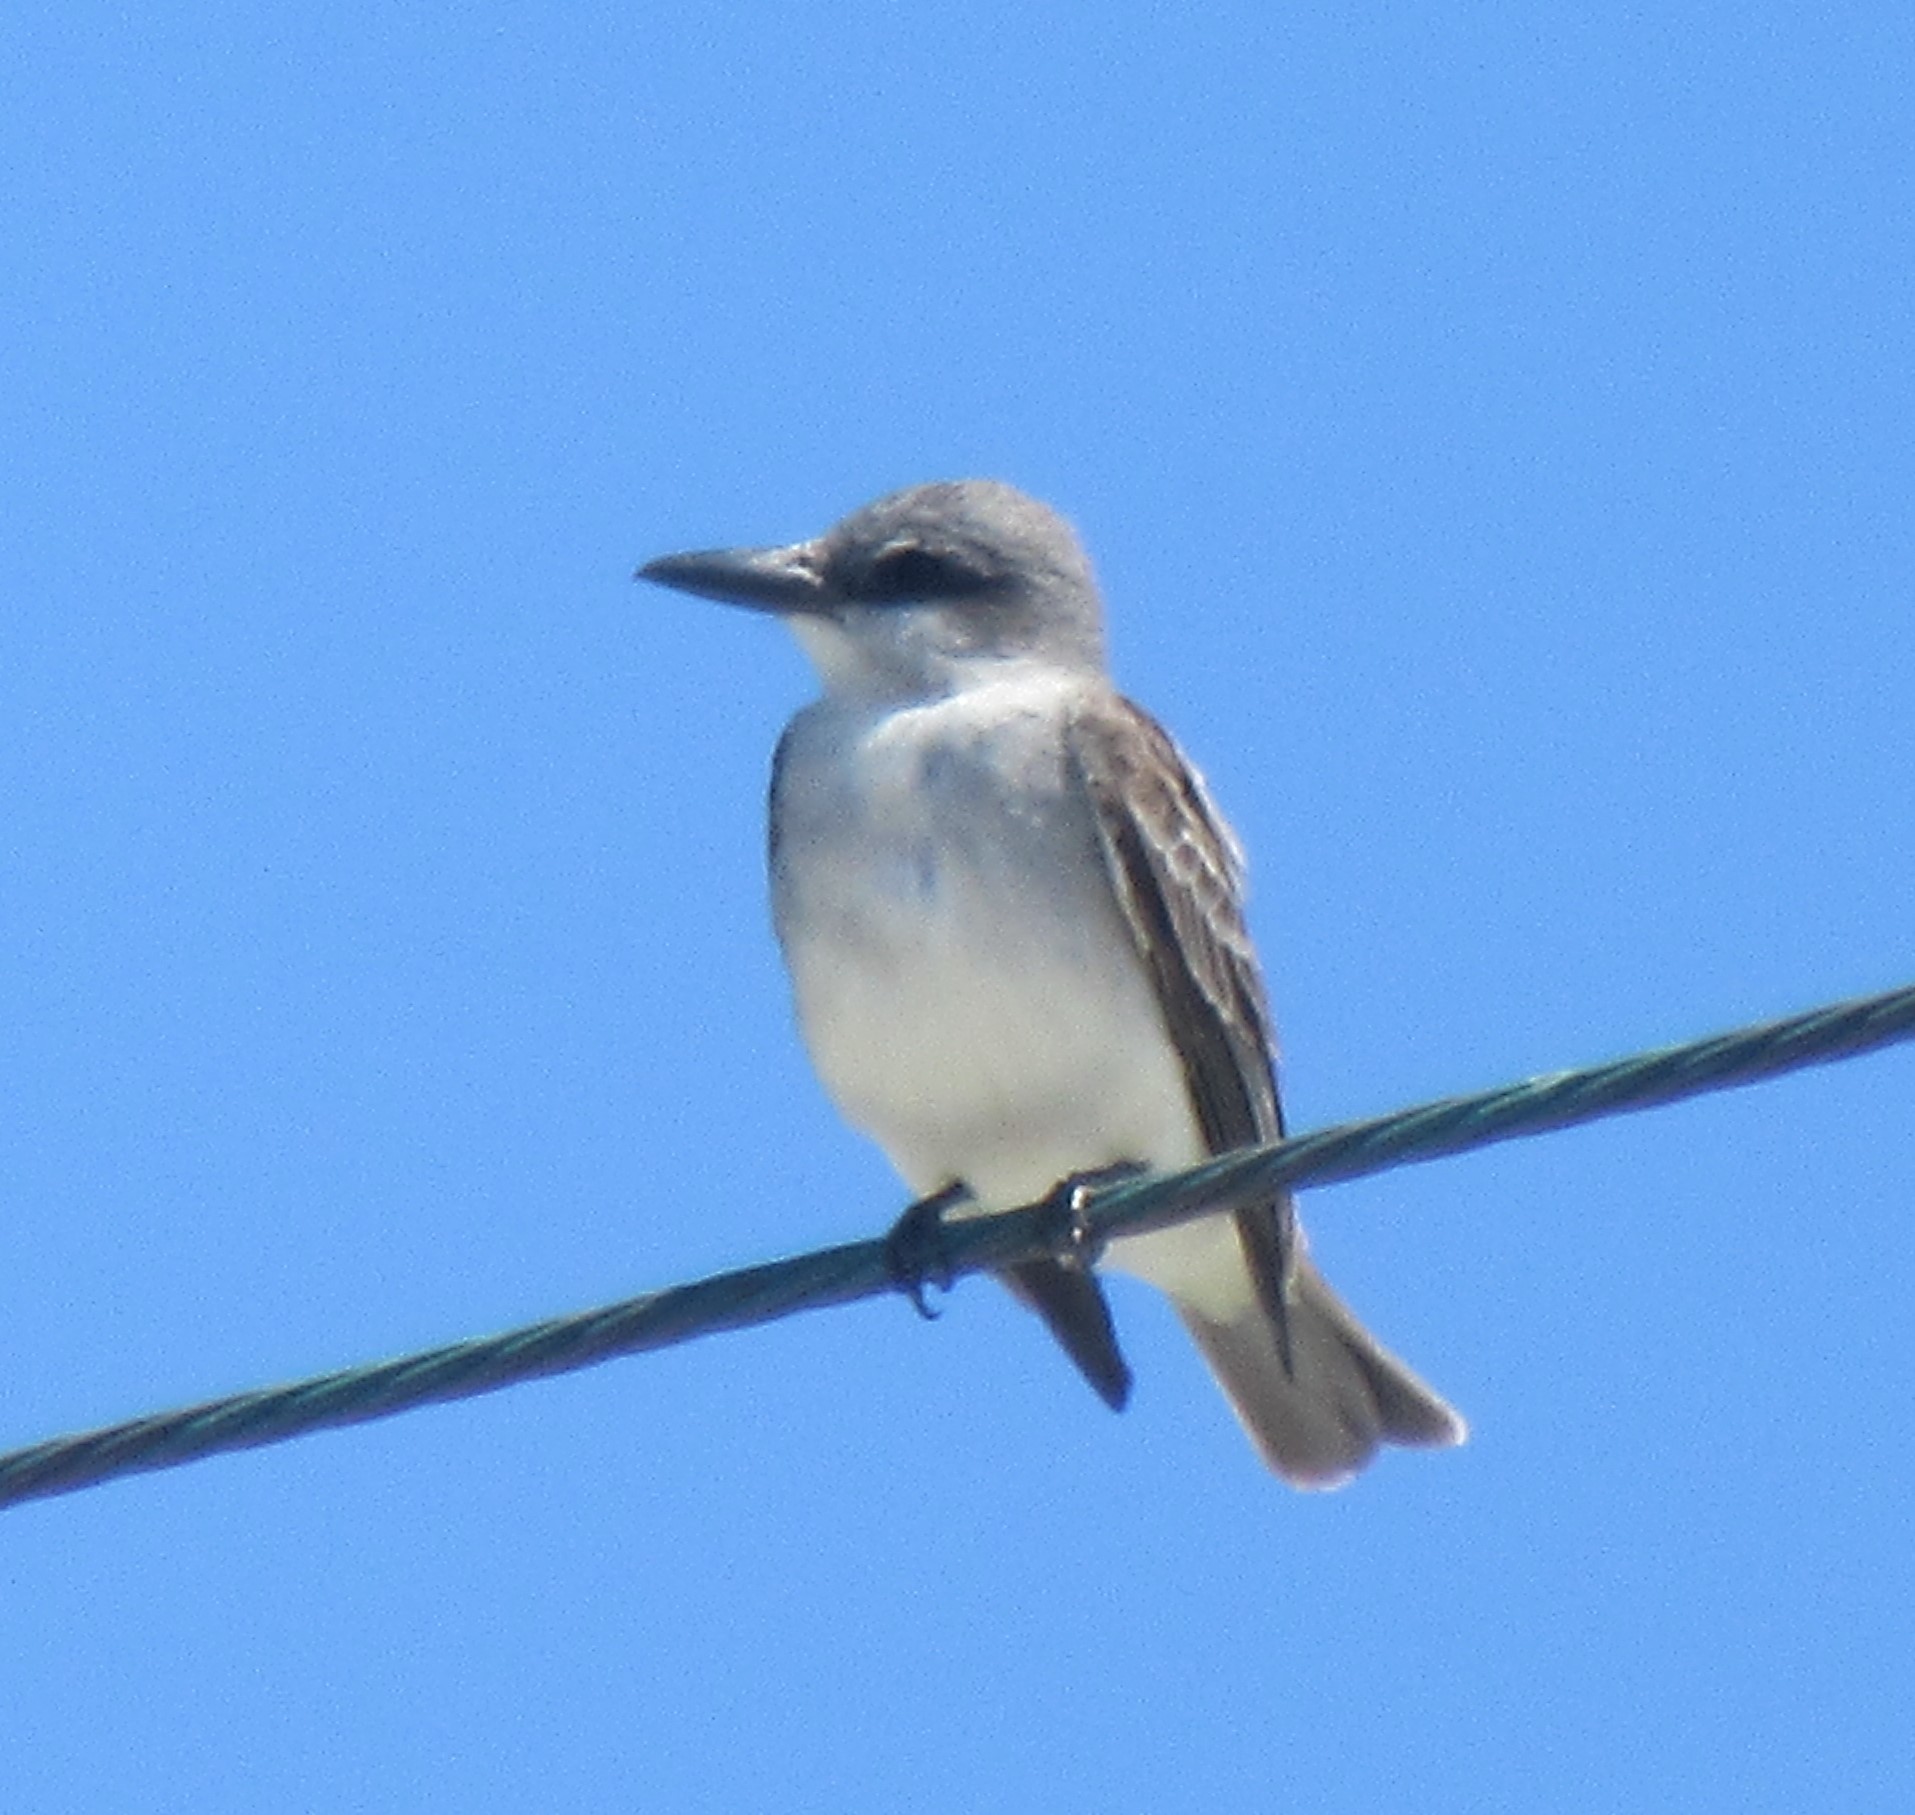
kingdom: Animalia
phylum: Chordata
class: Aves
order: Passeriformes
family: Tyrannidae
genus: Tyrannus
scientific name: Tyrannus dominicensis
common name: Gray kingbird
